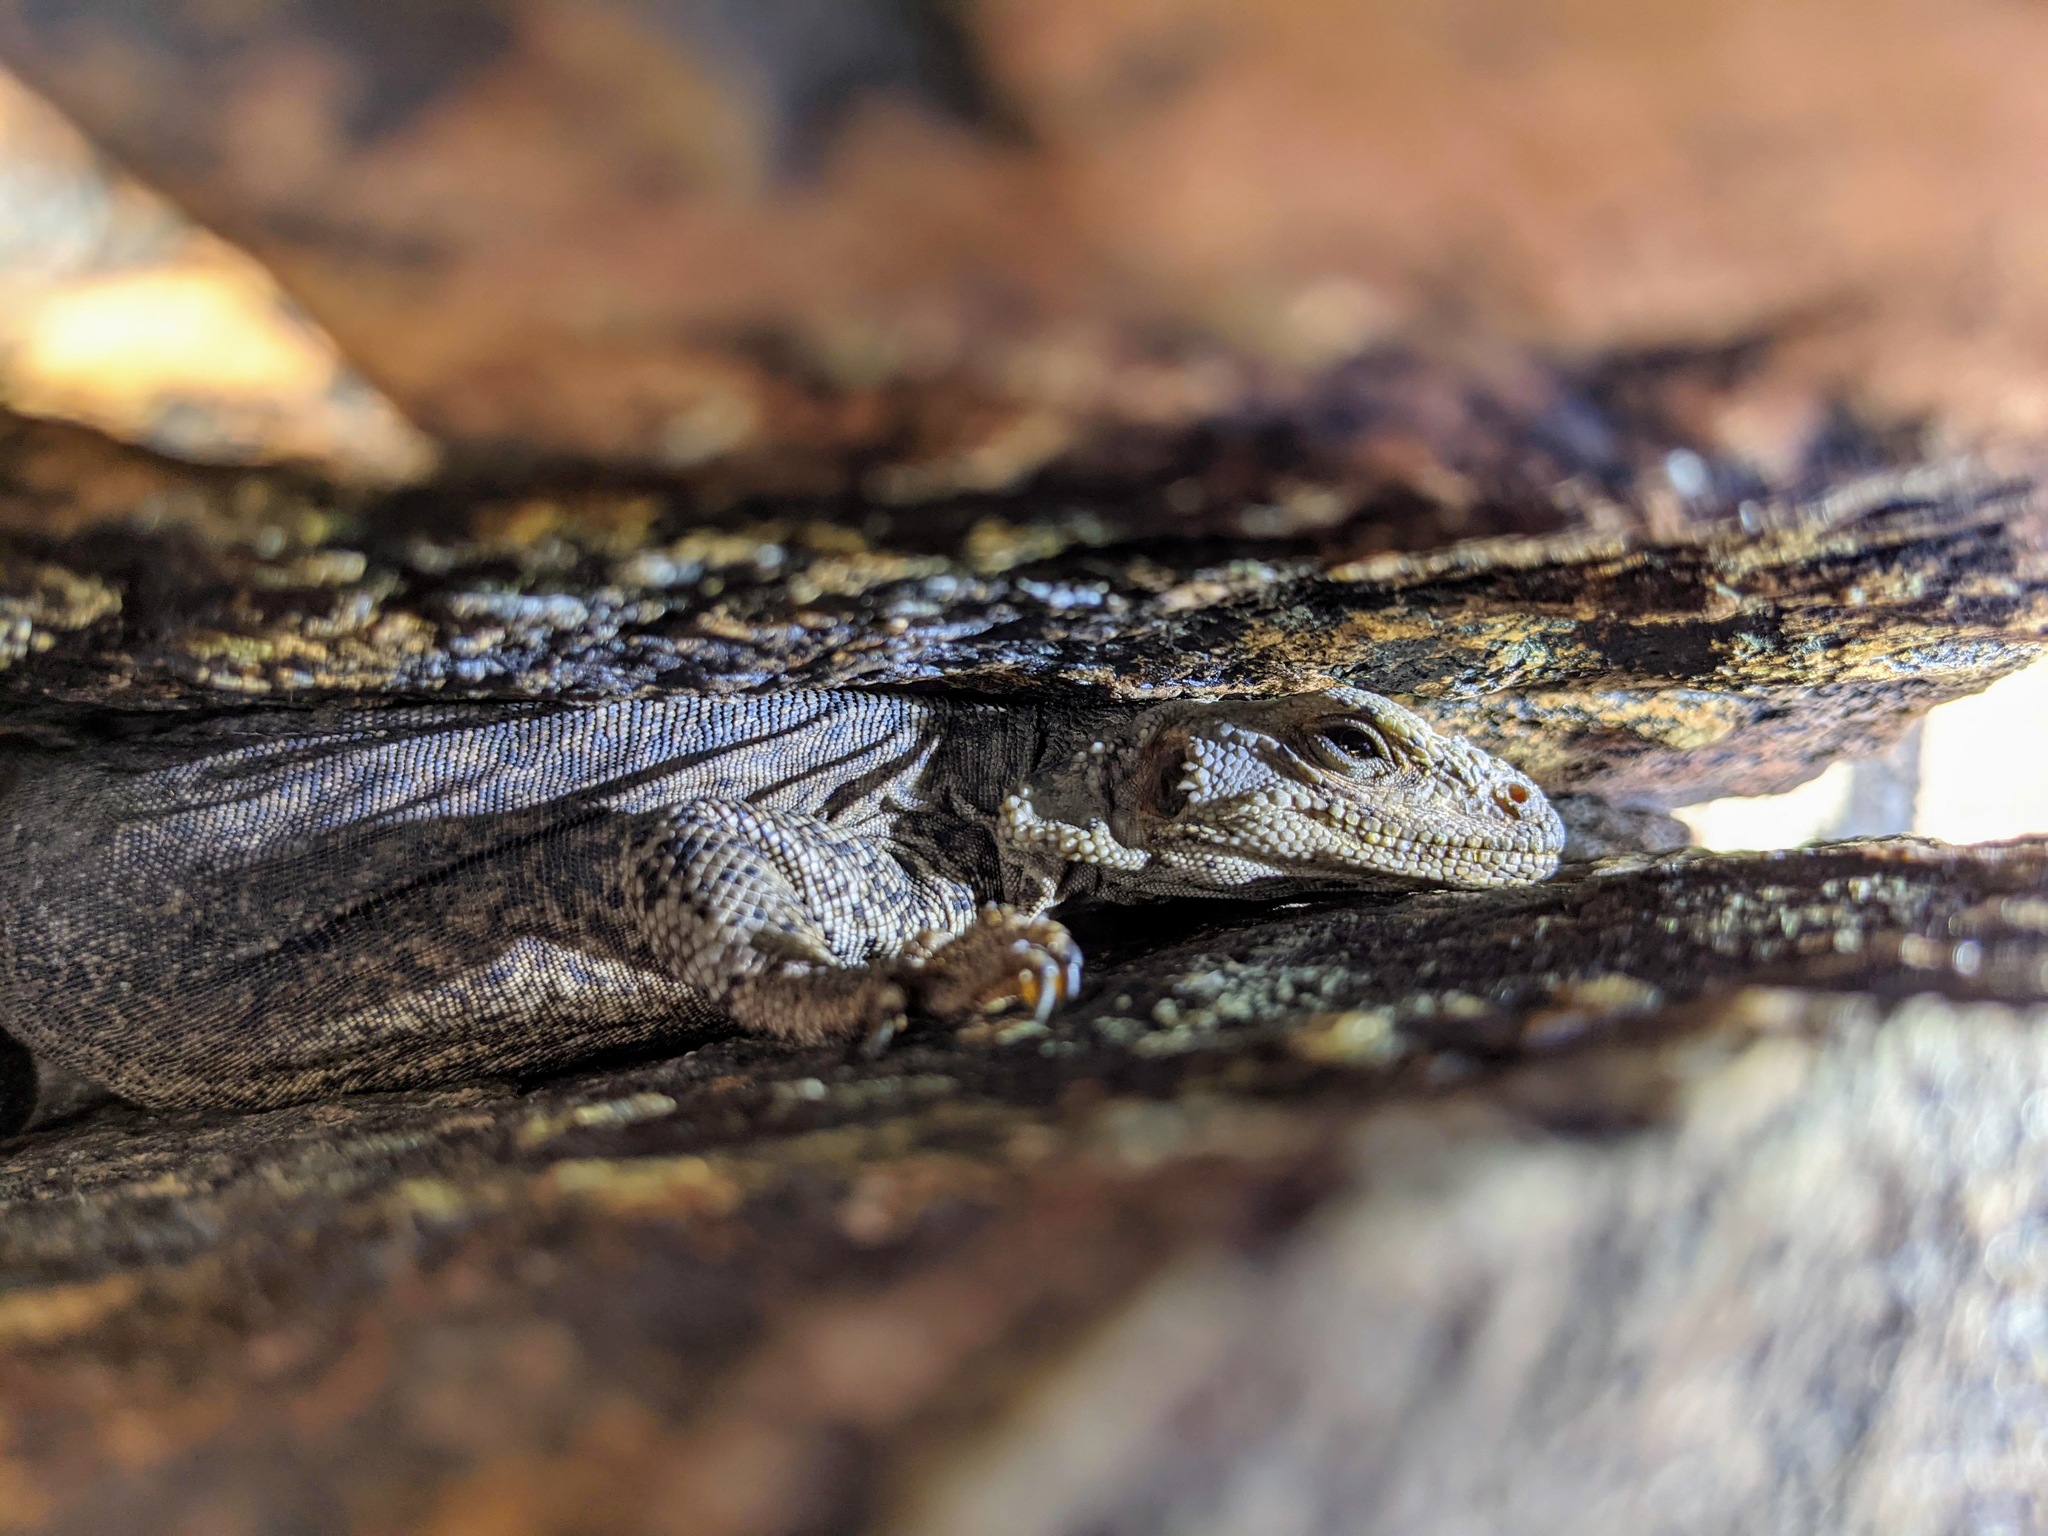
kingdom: Animalia
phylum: Chordata
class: Squamata
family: Iguanidae
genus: Sauromalus
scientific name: Sauromalus ater
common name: Northern chuckwalla
